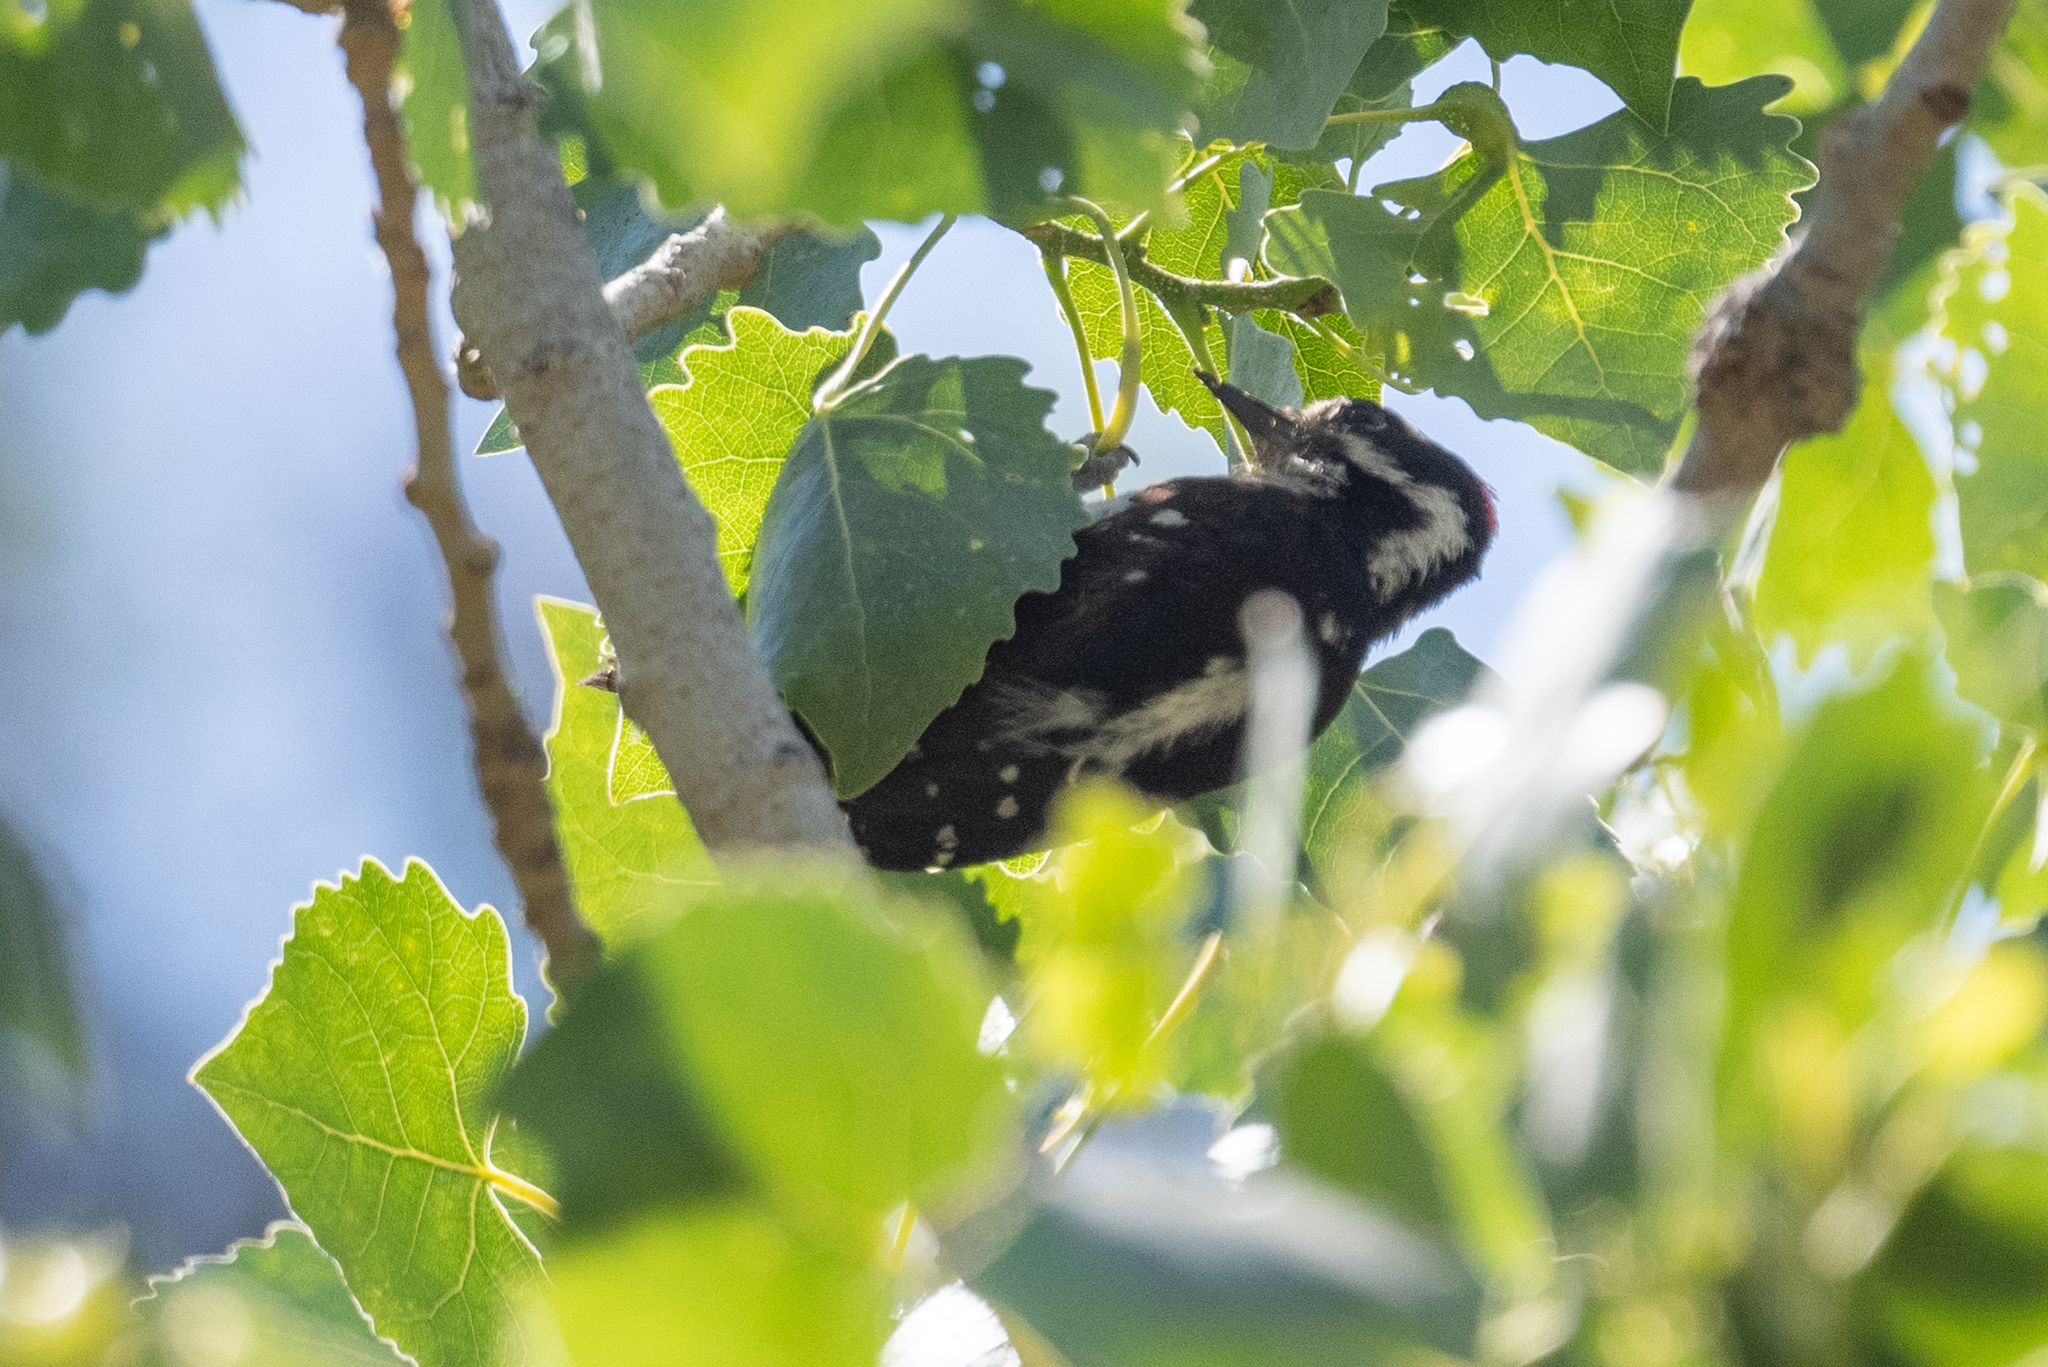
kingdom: Animalia
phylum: Chordata
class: Aves
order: Piciformes
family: Picidae
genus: Dryobates
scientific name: Dryobates pubescens
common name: Downy woodpecker
